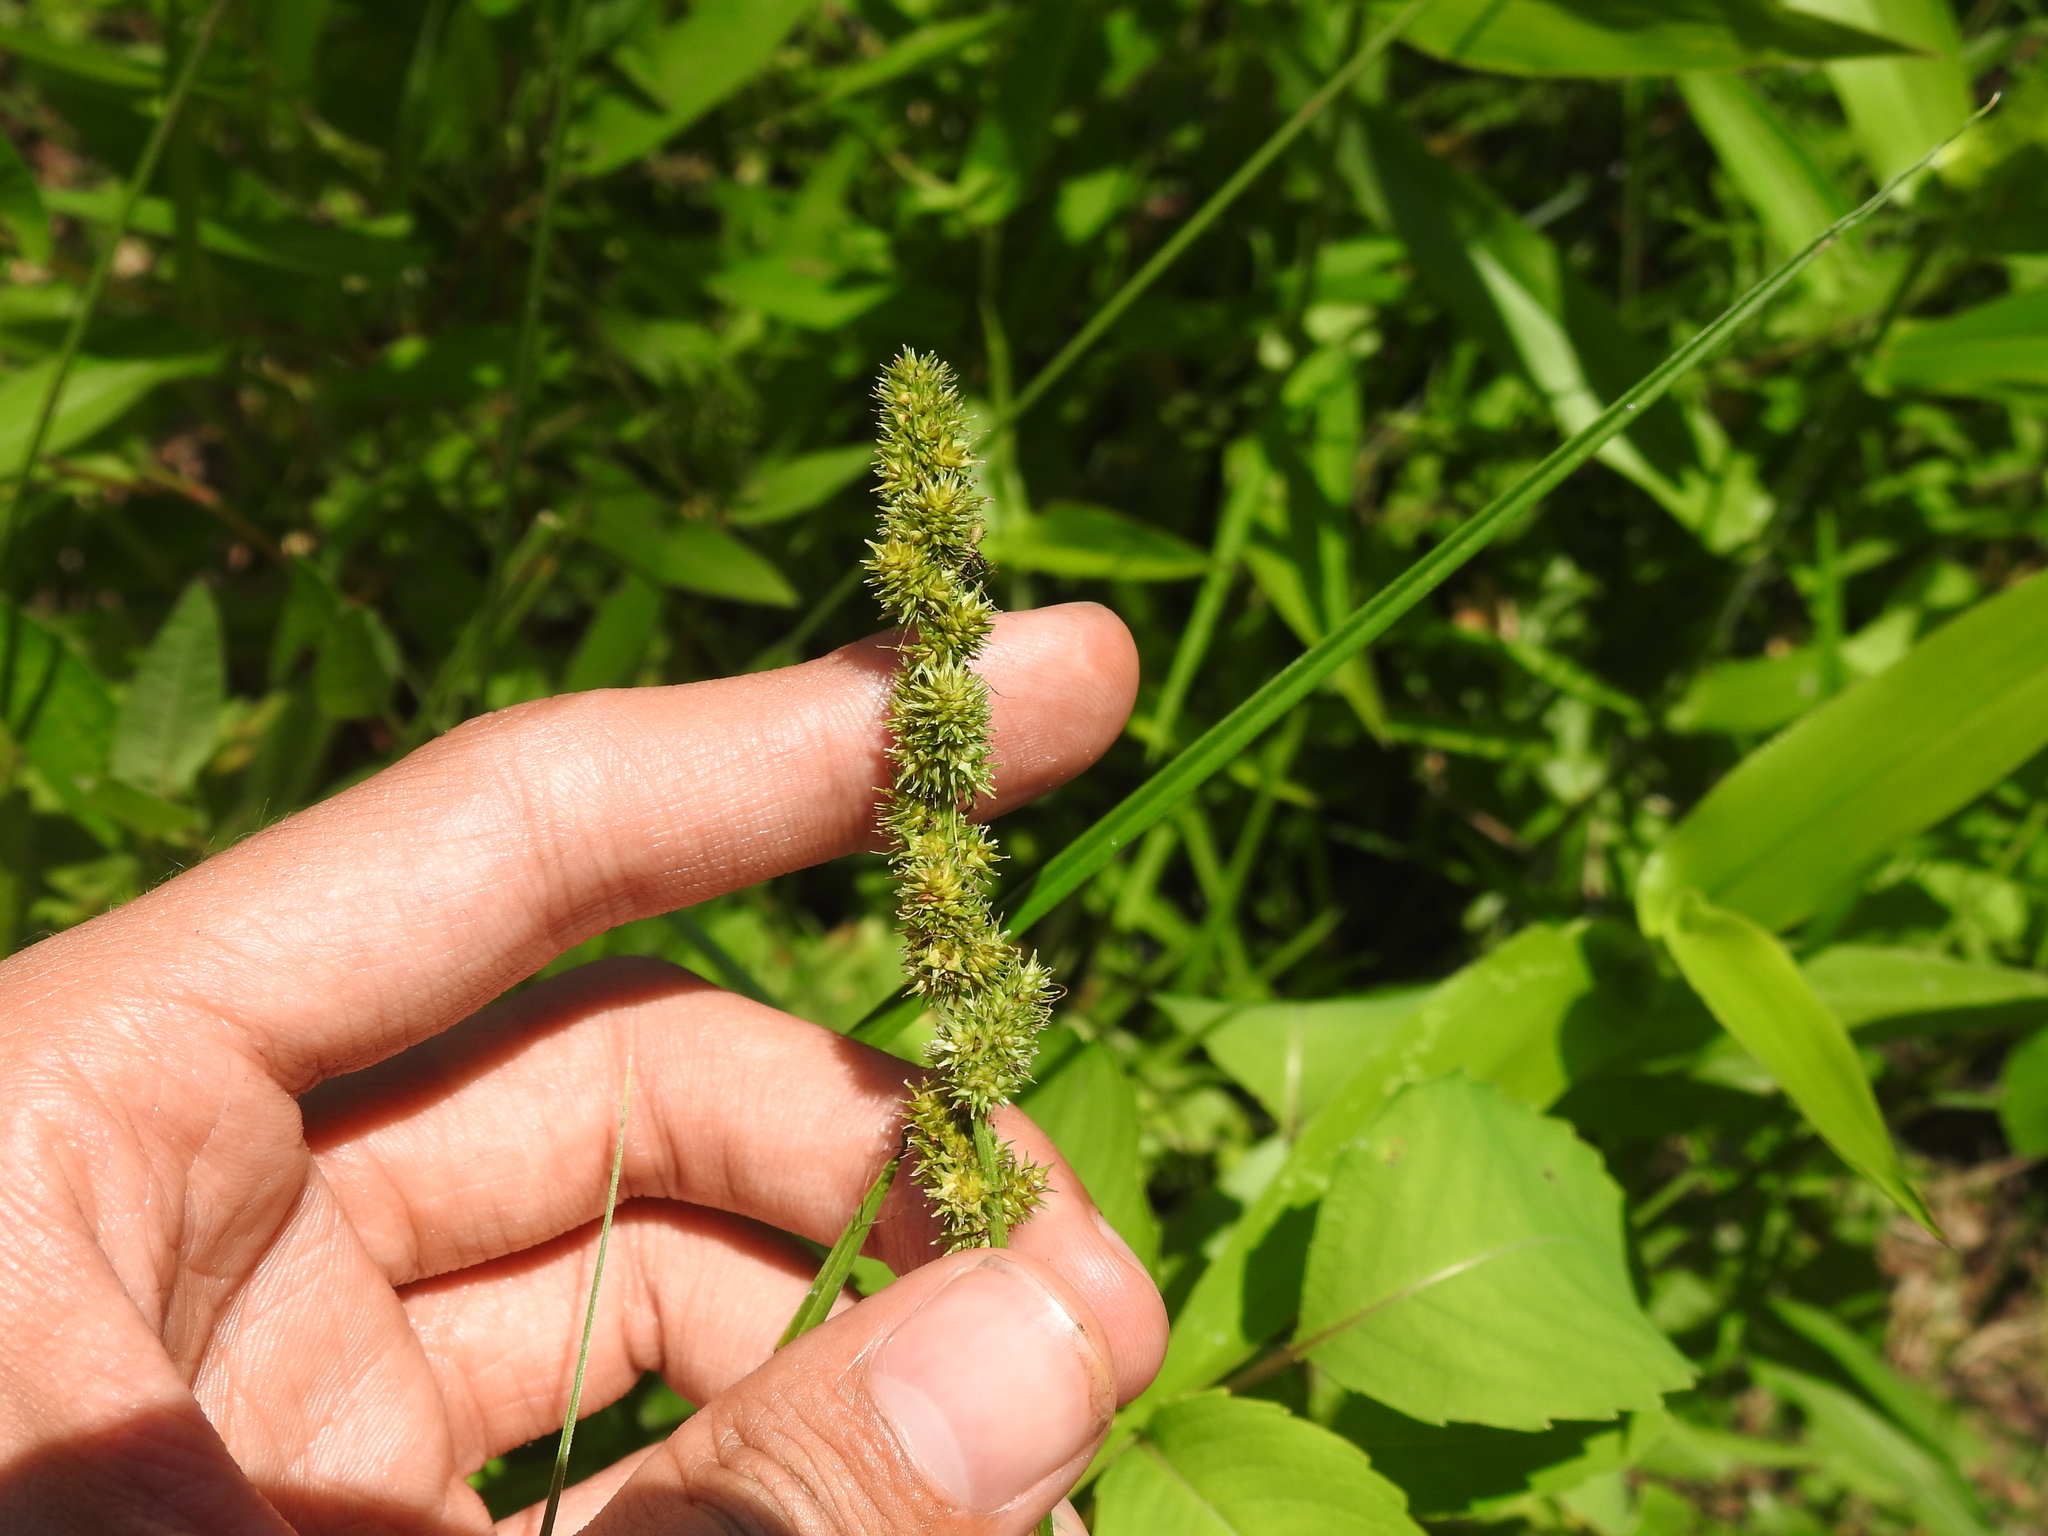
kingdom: Plantae
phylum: Tracheophyta
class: Liliopsida
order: Poales
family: Cyperaceae
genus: Carex
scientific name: Carex vulpinoidea
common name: American fox-sedge
